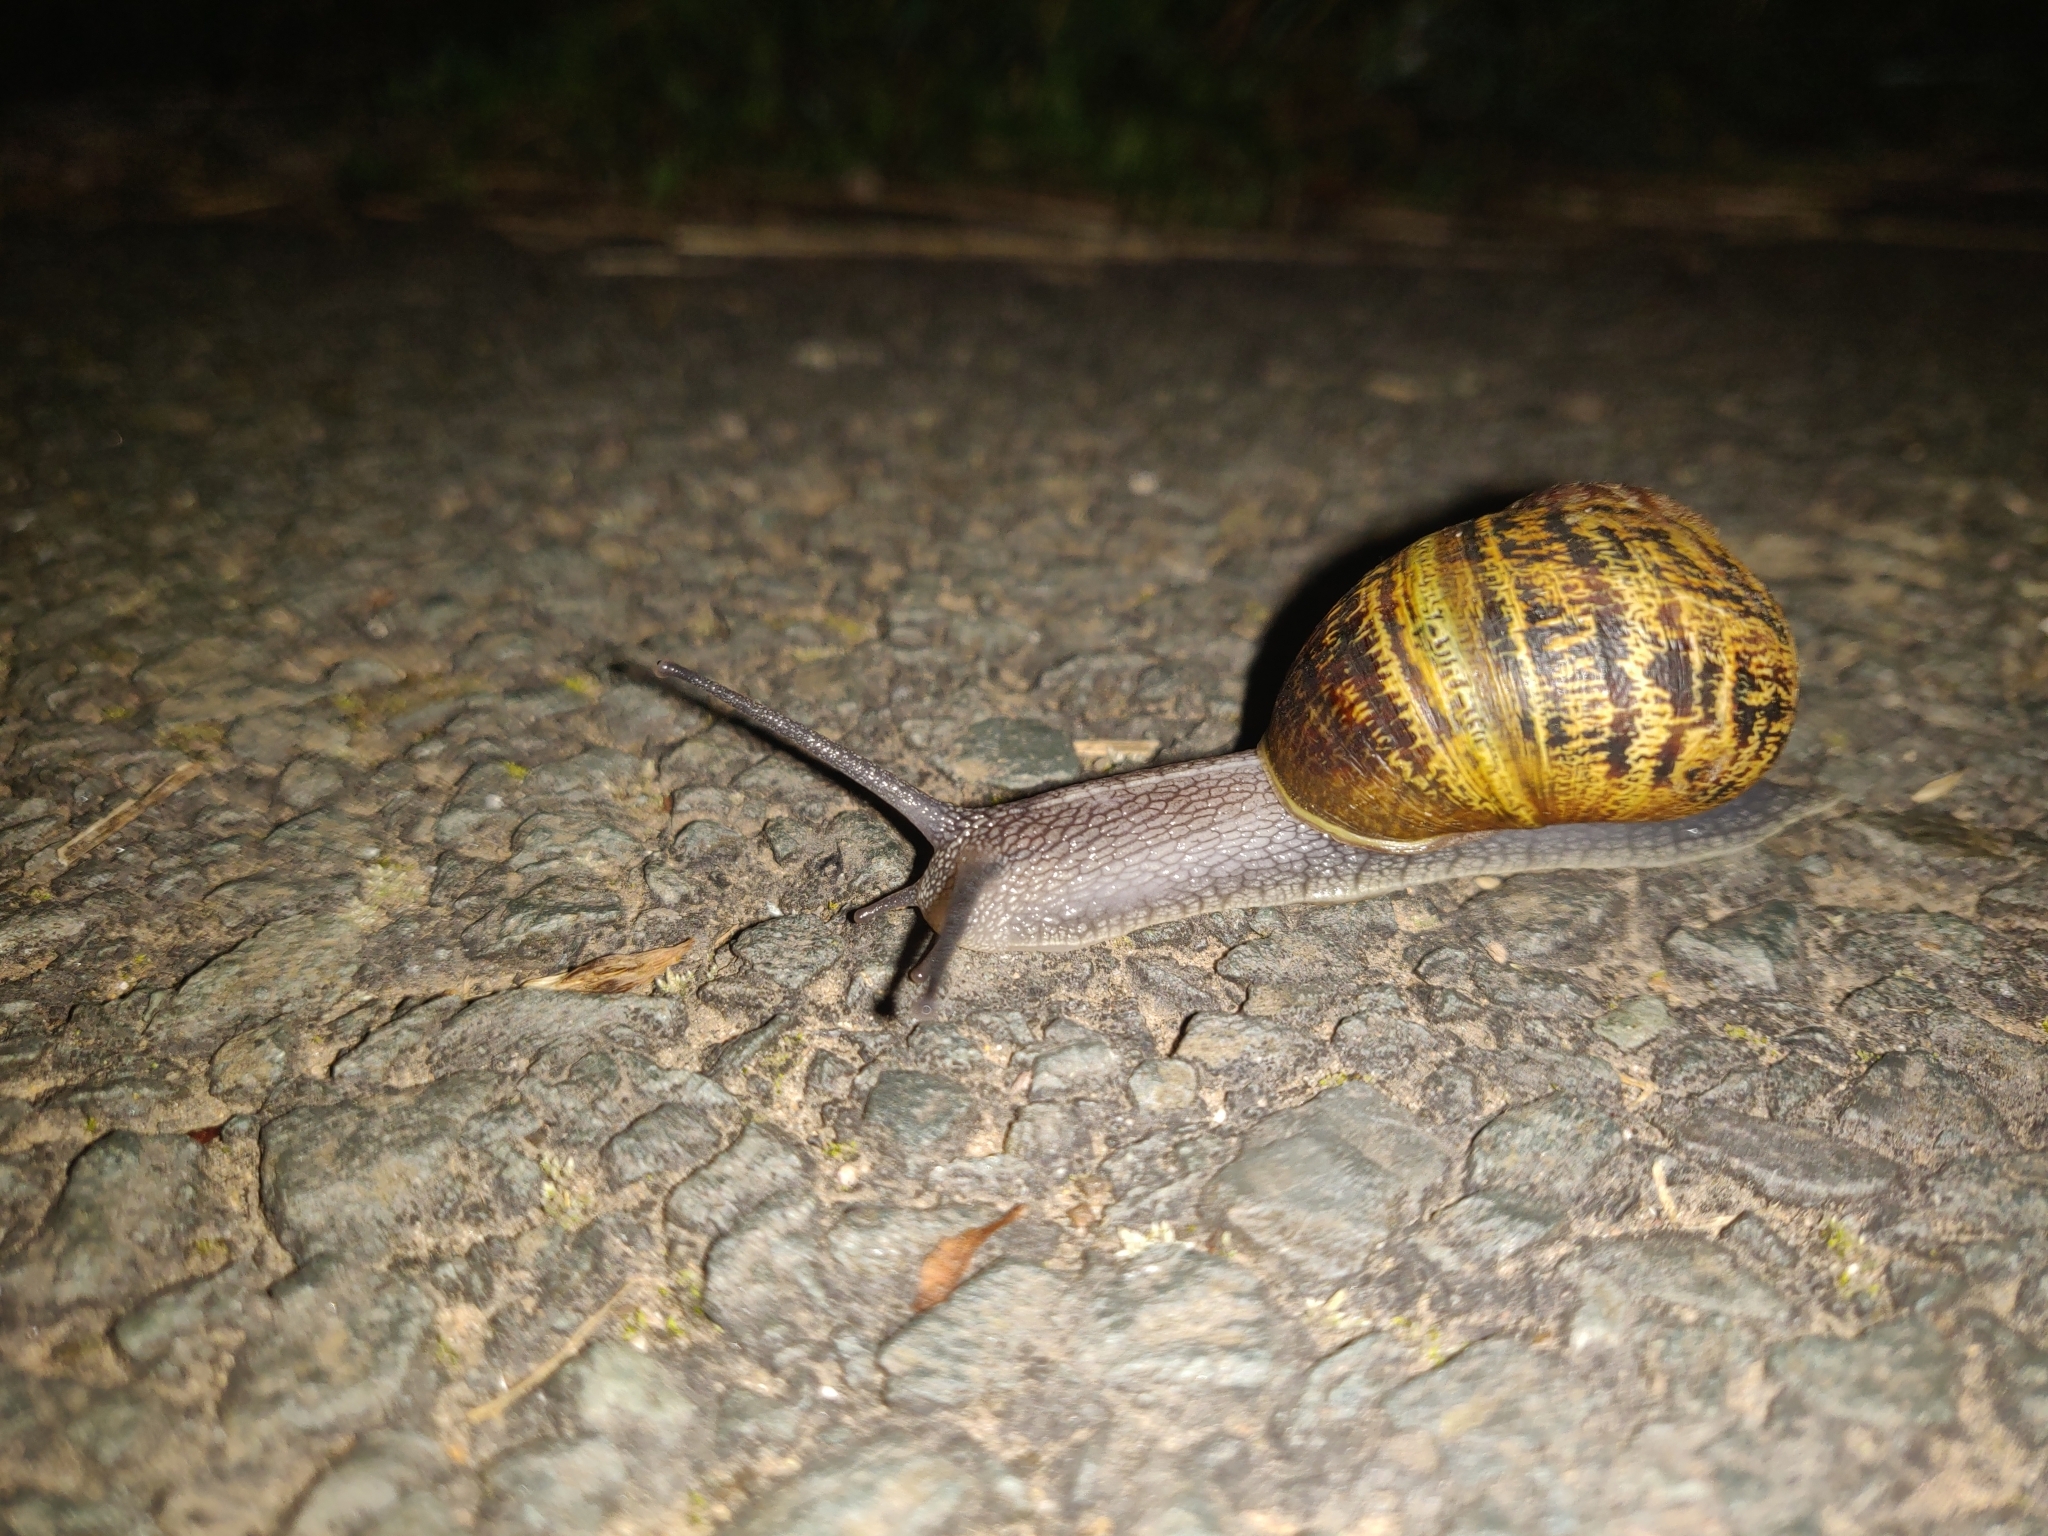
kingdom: Animalia
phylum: Mollusca
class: Gastropoda
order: Stylommatophora
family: Helicidae
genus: Cornu
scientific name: Cornu aspersum
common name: Brown garden snail
